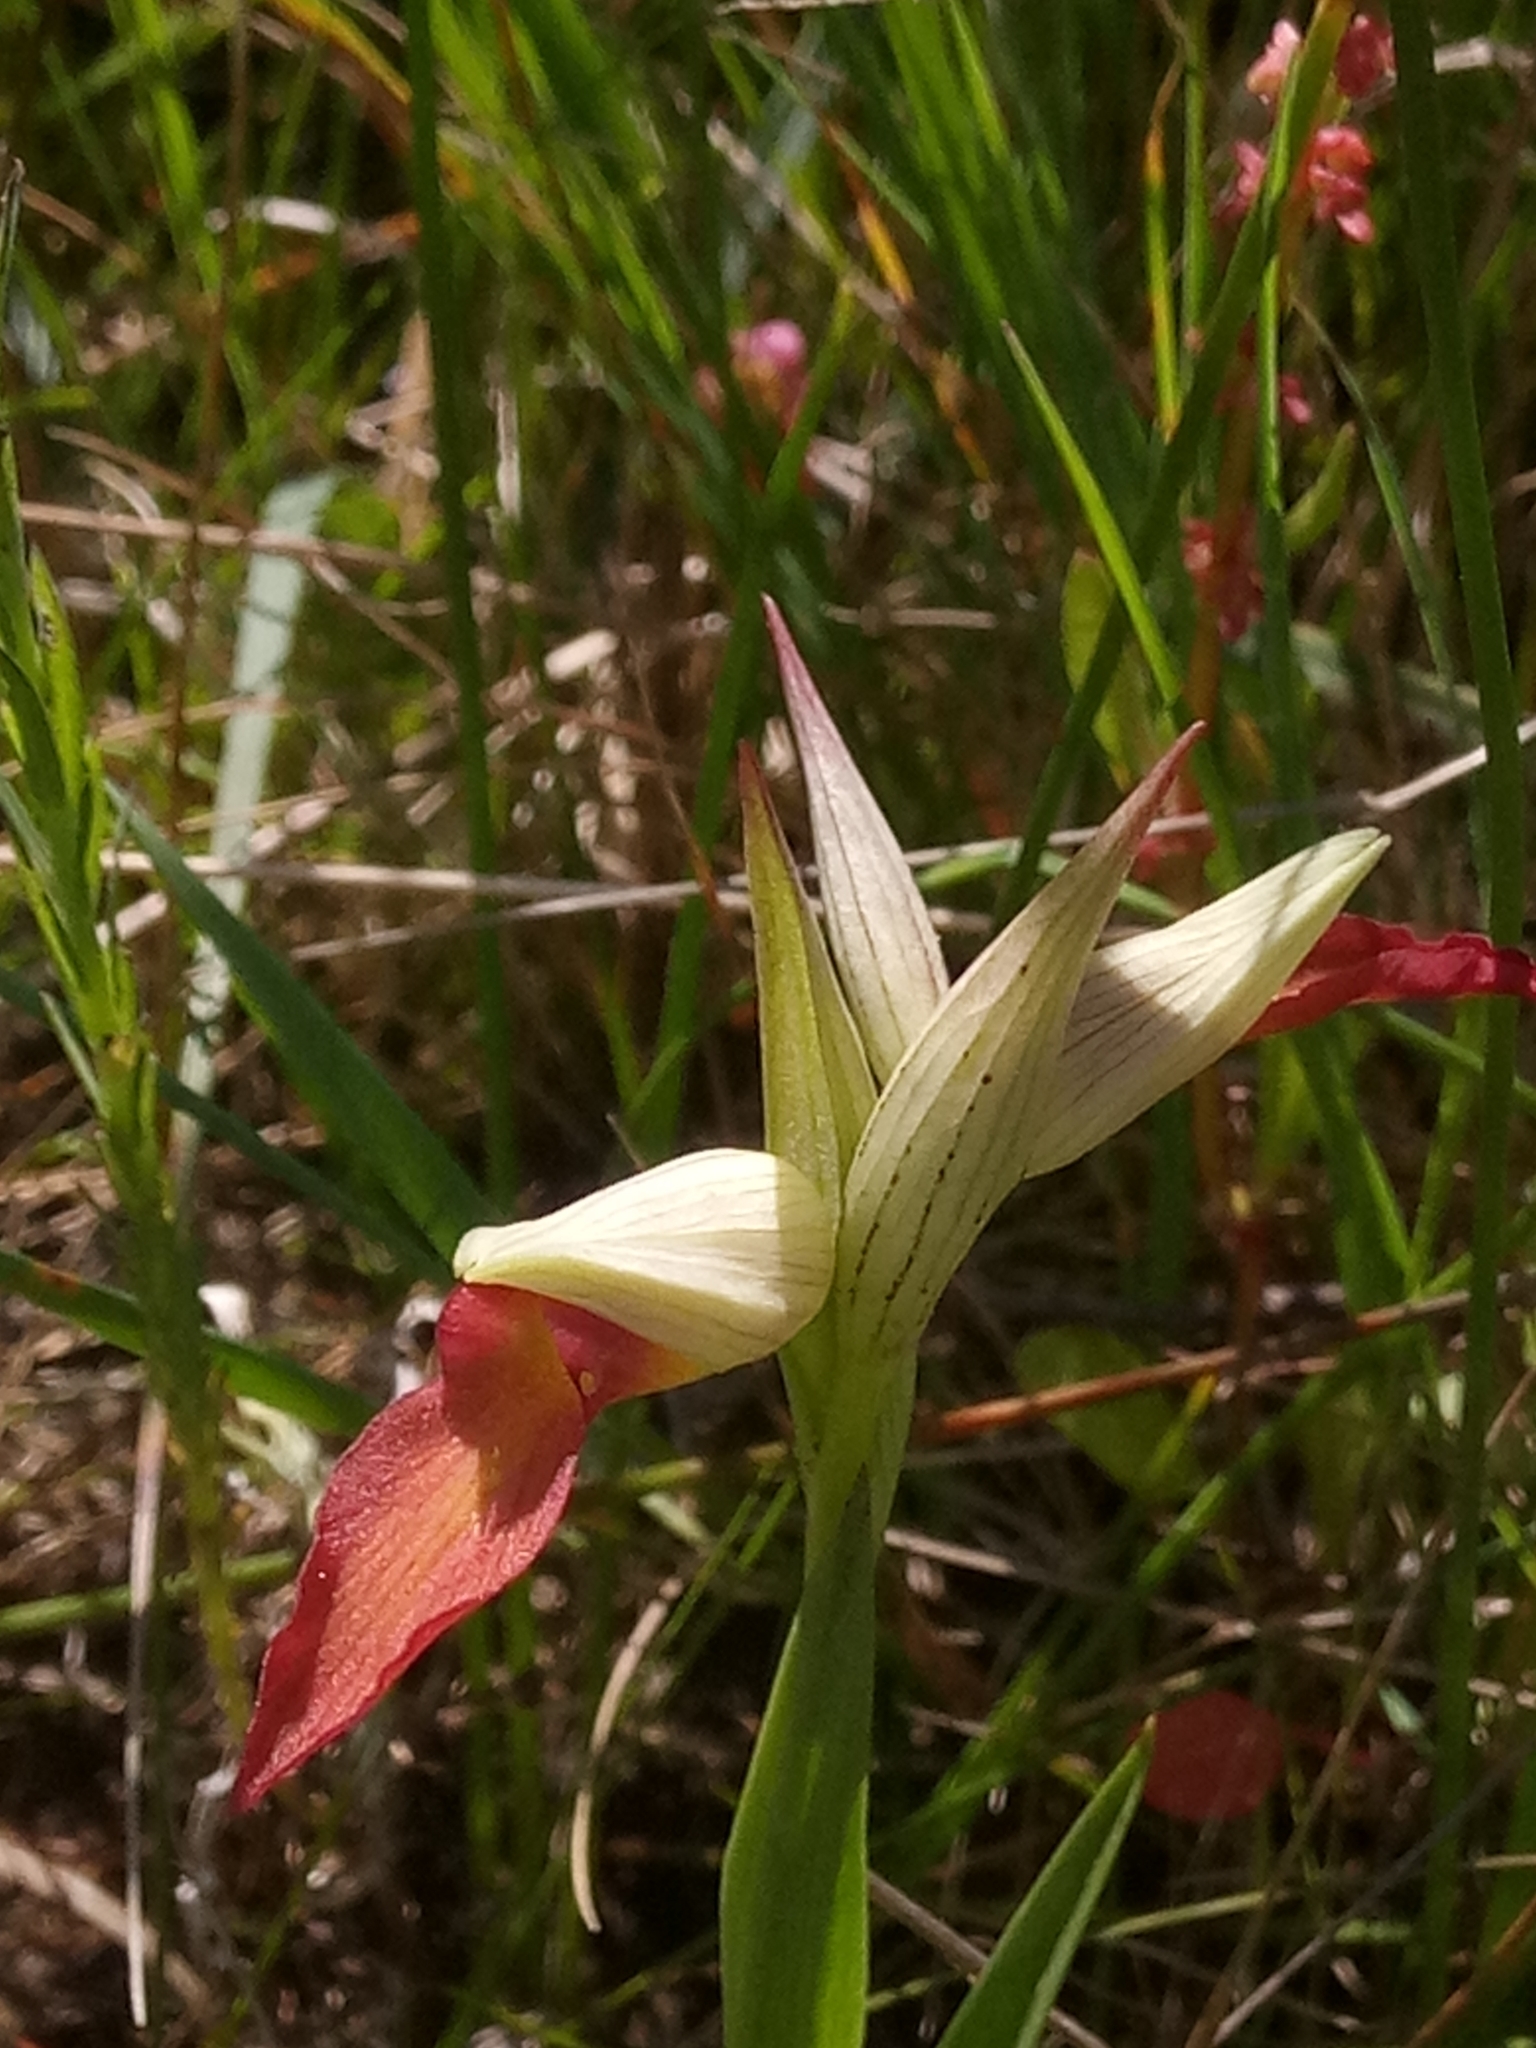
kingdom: Plantae
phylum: Tracheophyta
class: Liliopsida
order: Asparagales
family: Orchidaceae
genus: Serapias
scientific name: Serapias lingua
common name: Tongue-orchid
